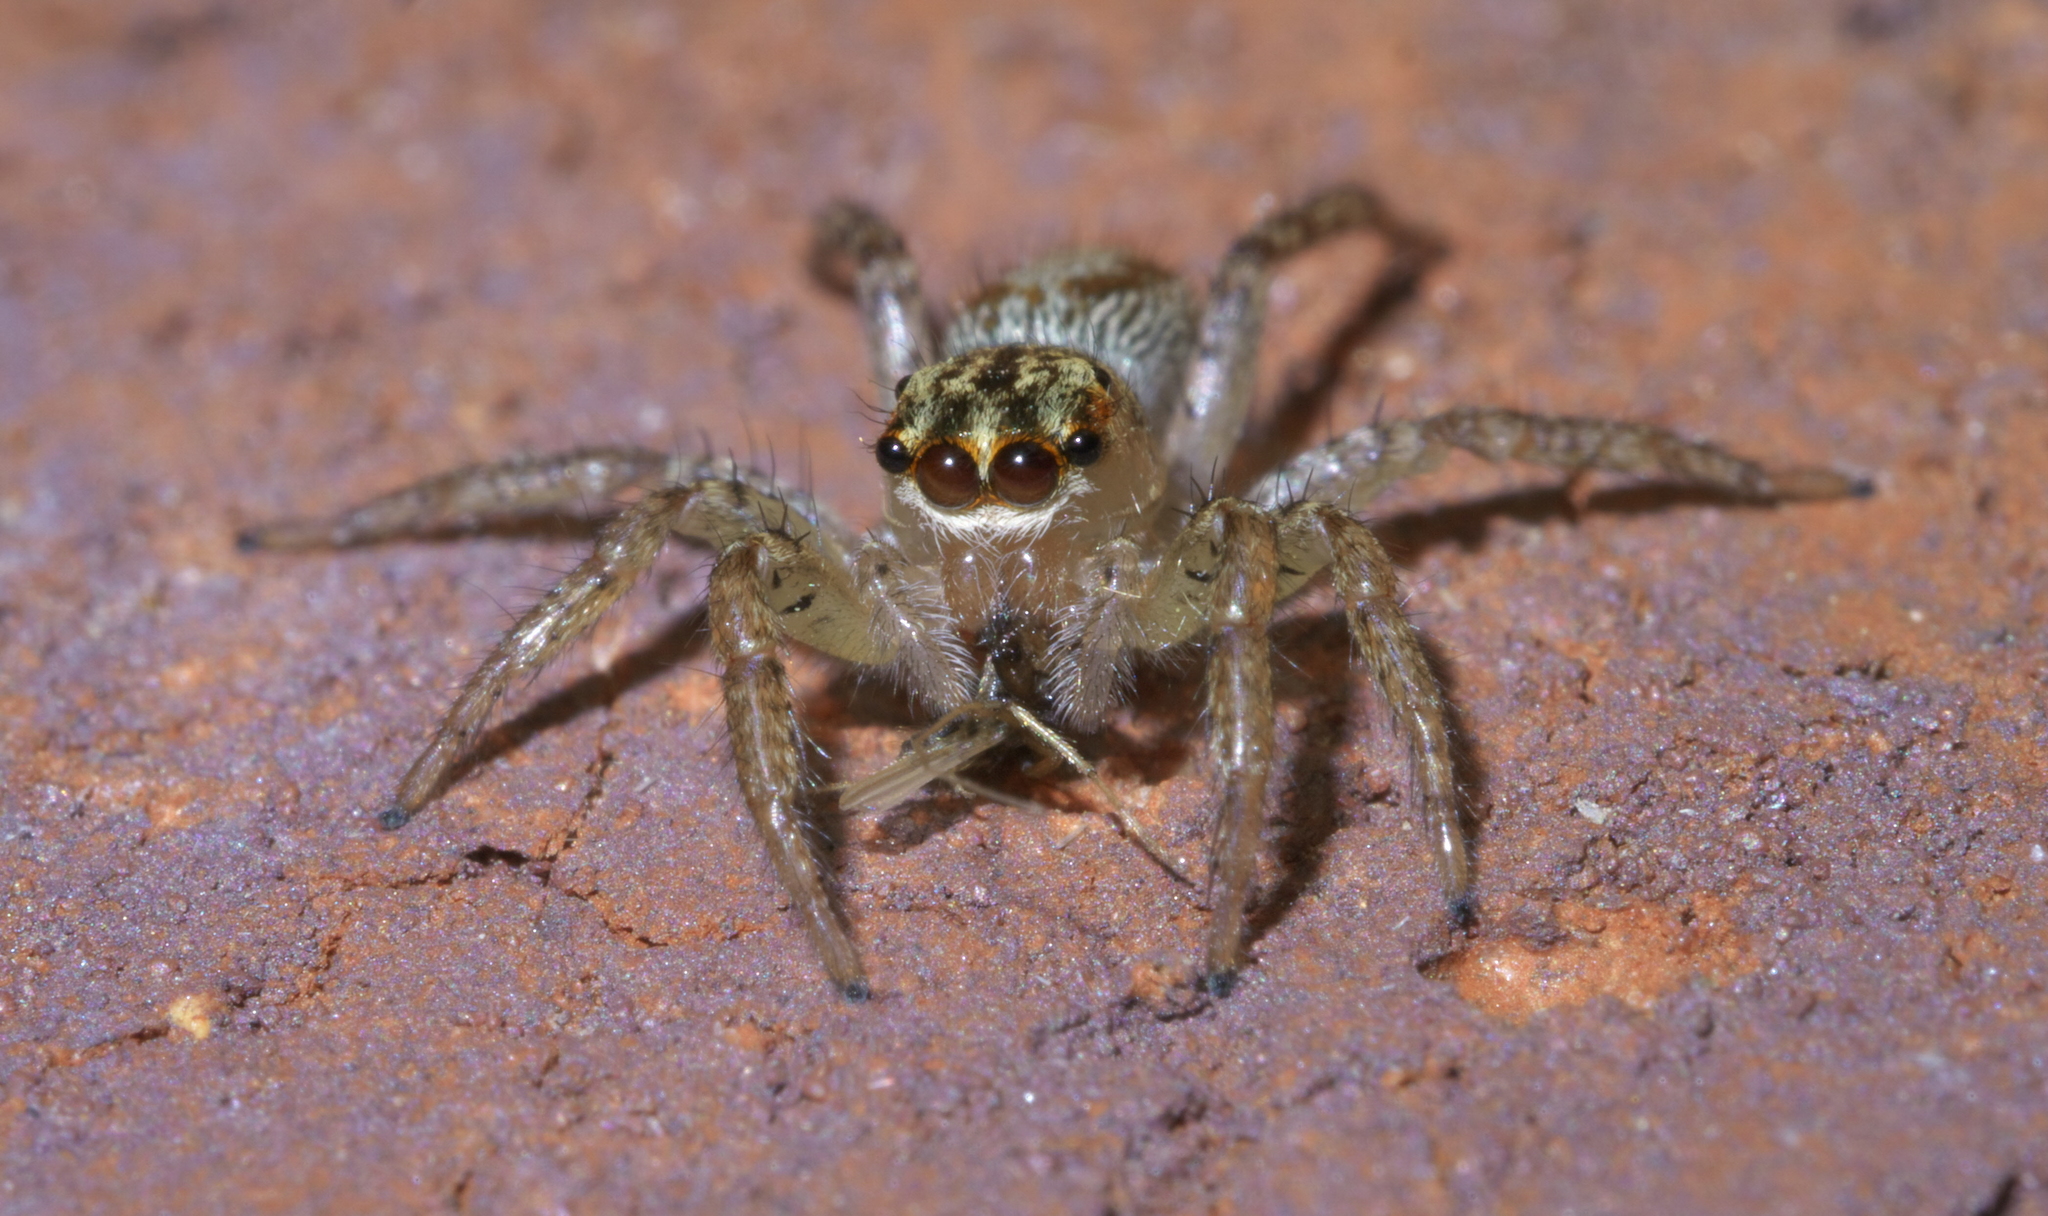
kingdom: Animalia
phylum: Arthropoda
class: Arachnida
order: Araneae
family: Salticidae
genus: Maevia
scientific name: Maevia inclemens
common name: Dimorphic jumper
